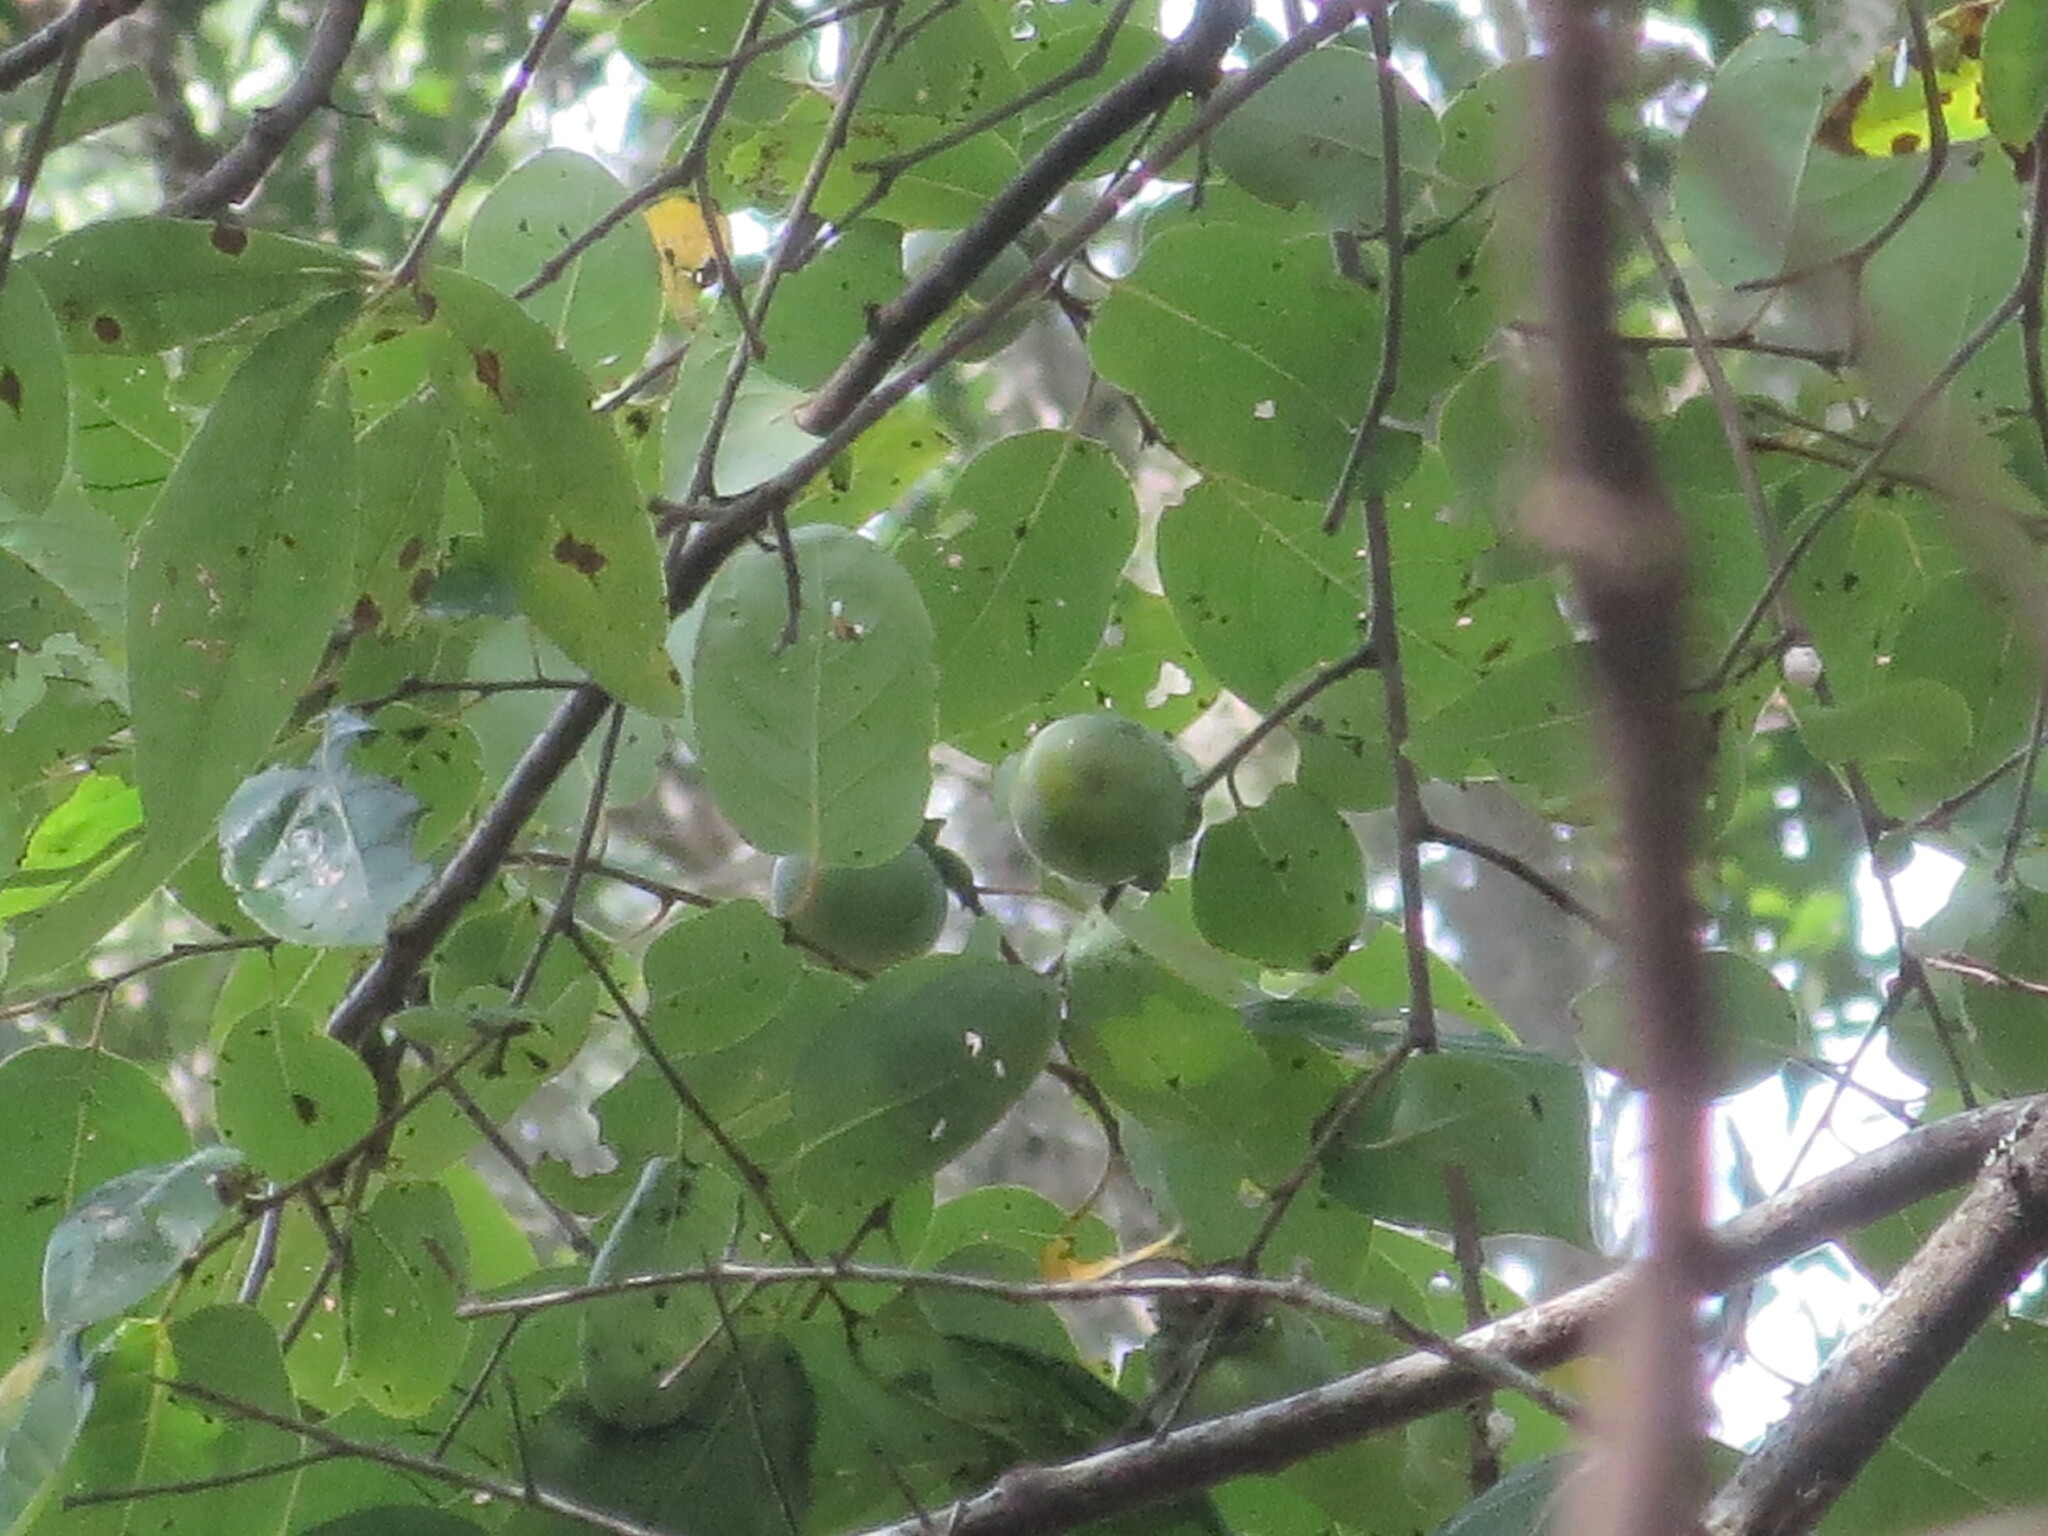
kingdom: Plantae
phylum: Tracheophyta
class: Magnoliopsida
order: Ericales
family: Ebenaceae
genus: Diospyros
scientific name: Diospyros virginiana
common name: Persimmon
